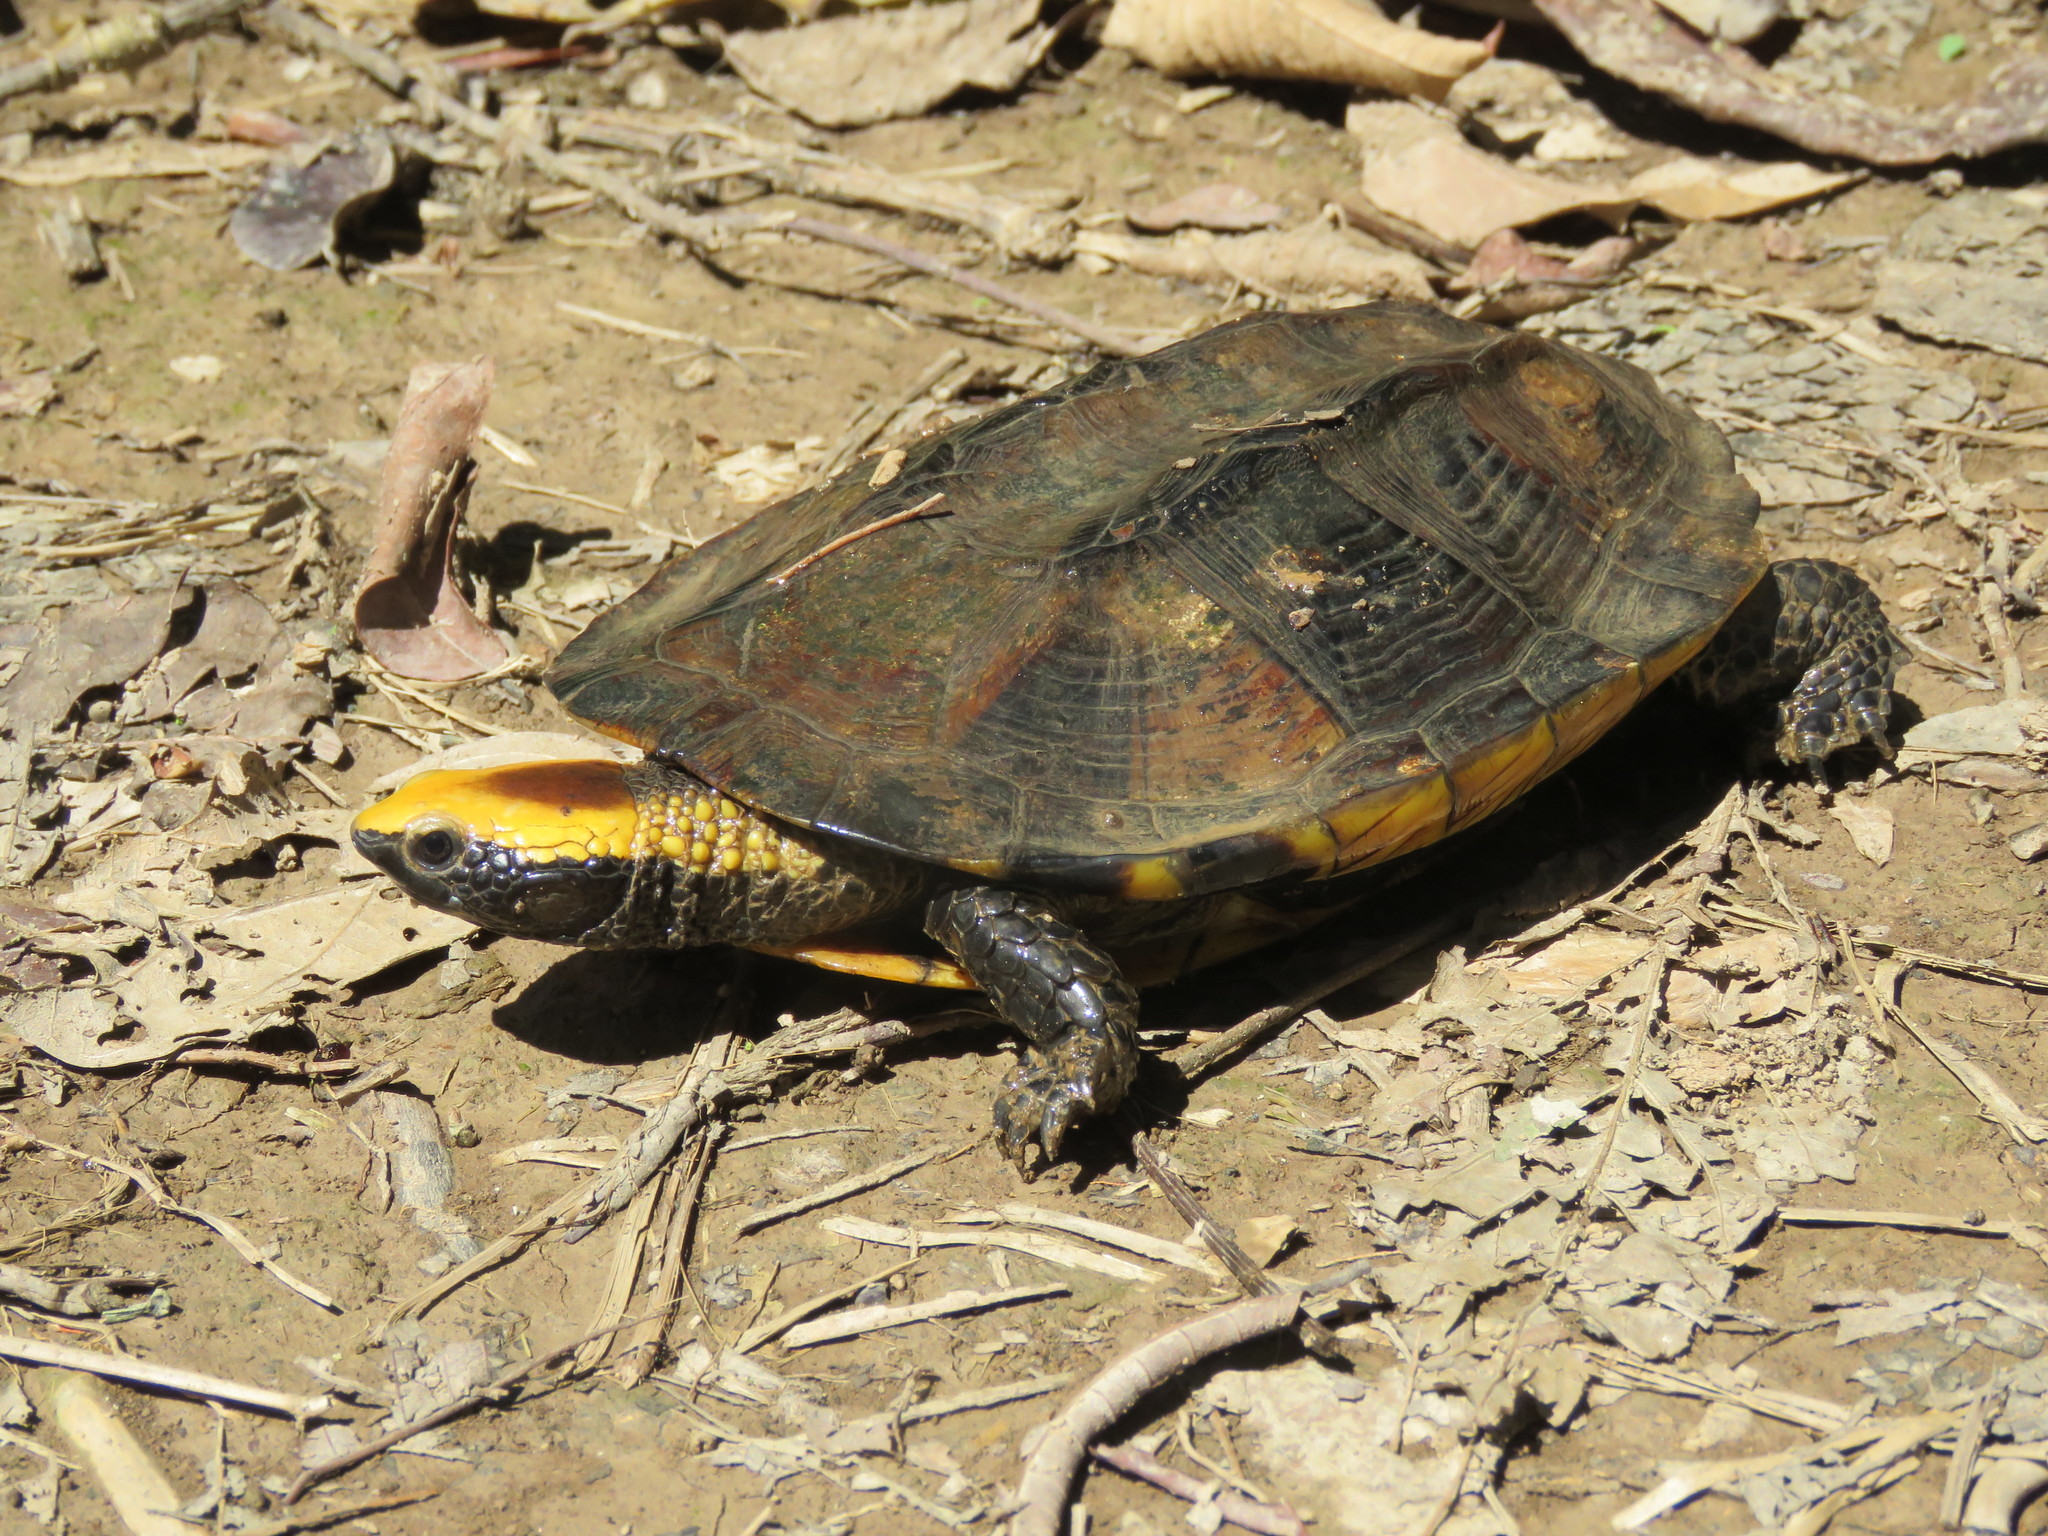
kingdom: Animalia
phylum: Chordata
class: Testudines
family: Chelidae
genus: Platemys
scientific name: Platemys platycephala
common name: Twistneck turtle
